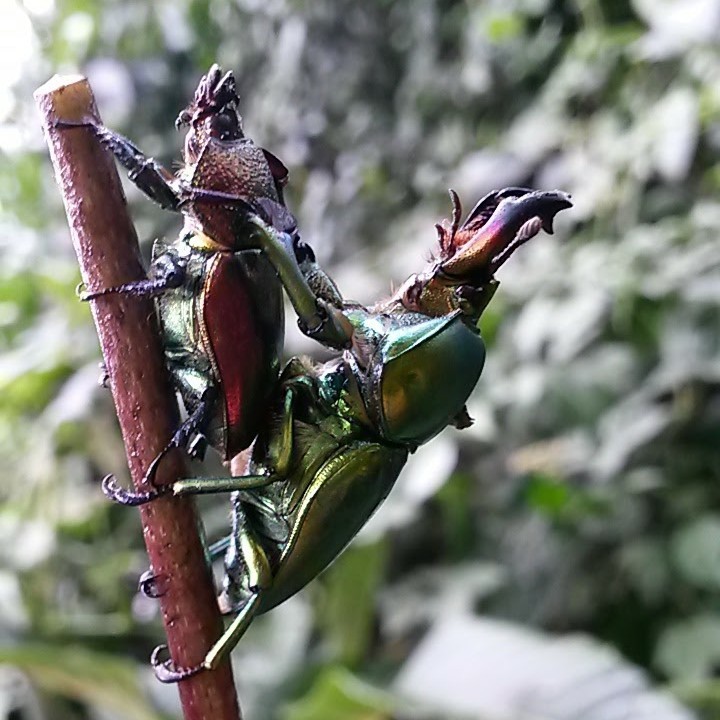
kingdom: Animalia
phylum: Arthropoda
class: Insecta
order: Coleoptera
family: Lucanidae
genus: Lamprima
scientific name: Lamprima aurata
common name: Golden stag beetle
